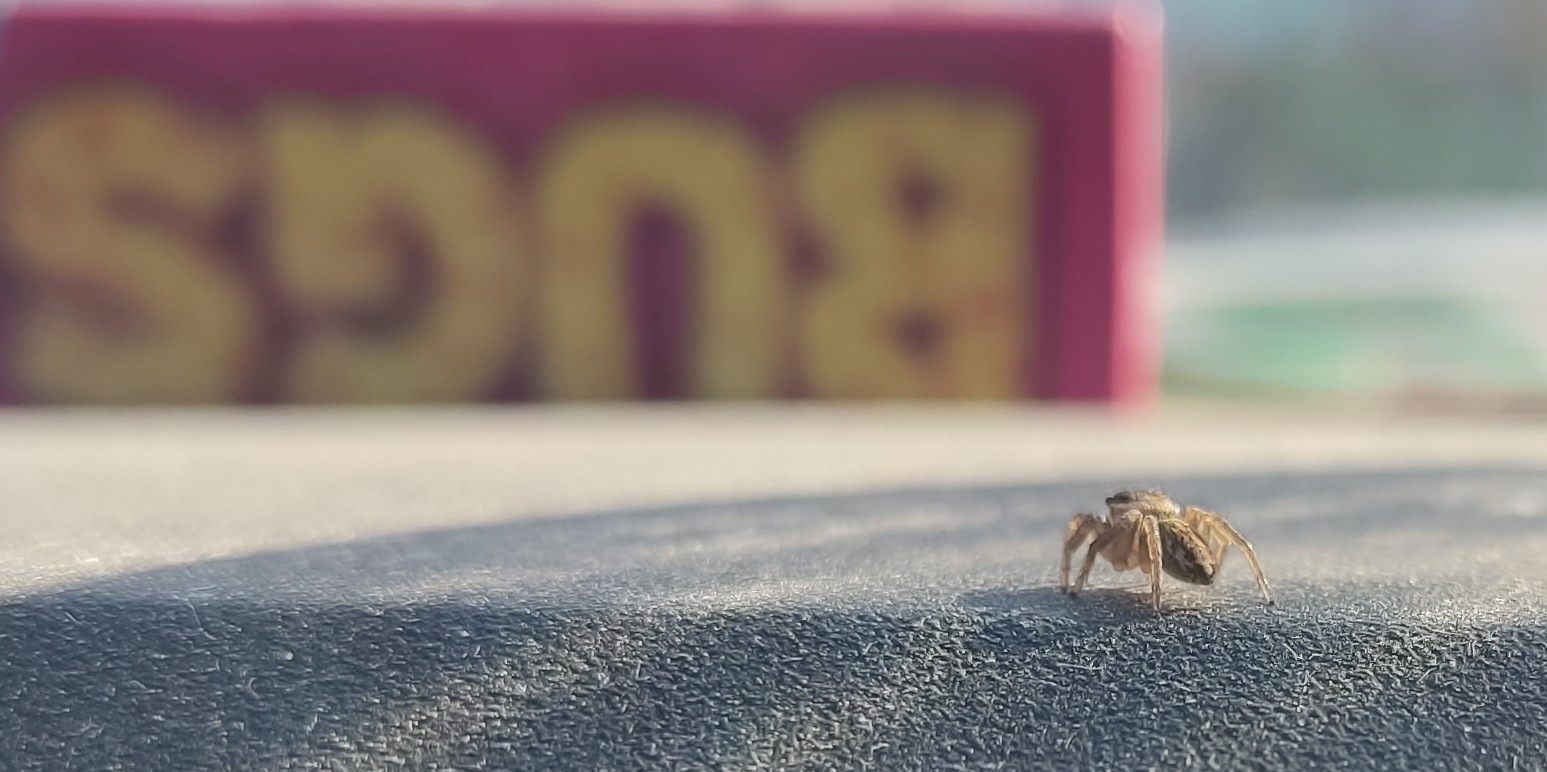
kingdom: Animalia
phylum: Arthropoda
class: Arachnida
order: Araneae
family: Salticidae
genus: Maratus
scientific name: Maratus griseus
